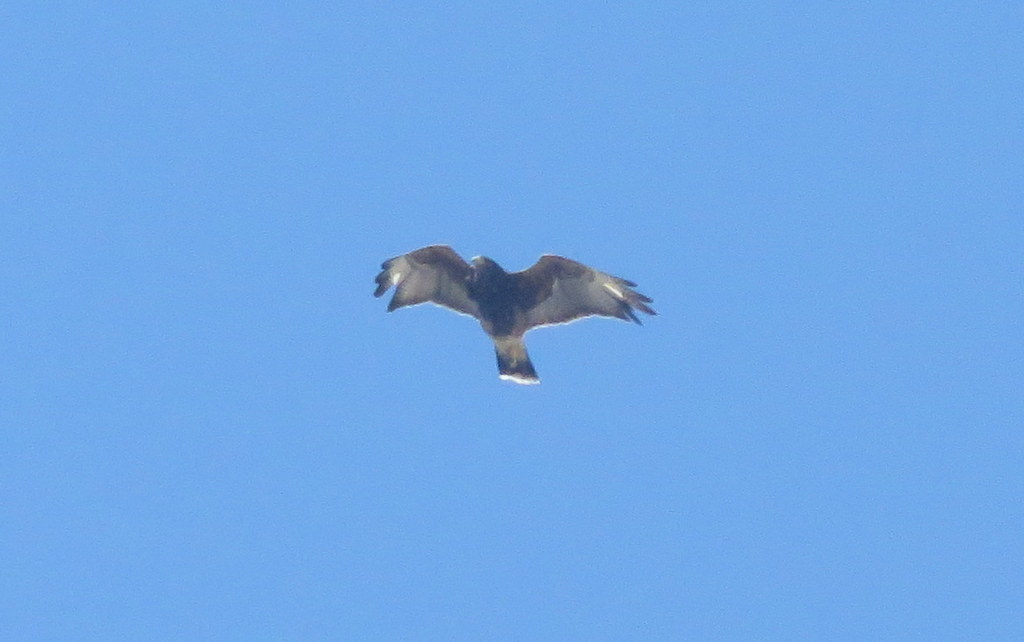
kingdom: Animalia
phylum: Chordata
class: Aves
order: Accipitriformes
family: Accipitridae
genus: Parabuteo
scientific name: Parabuteo unicinctus
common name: Harris's hawk
